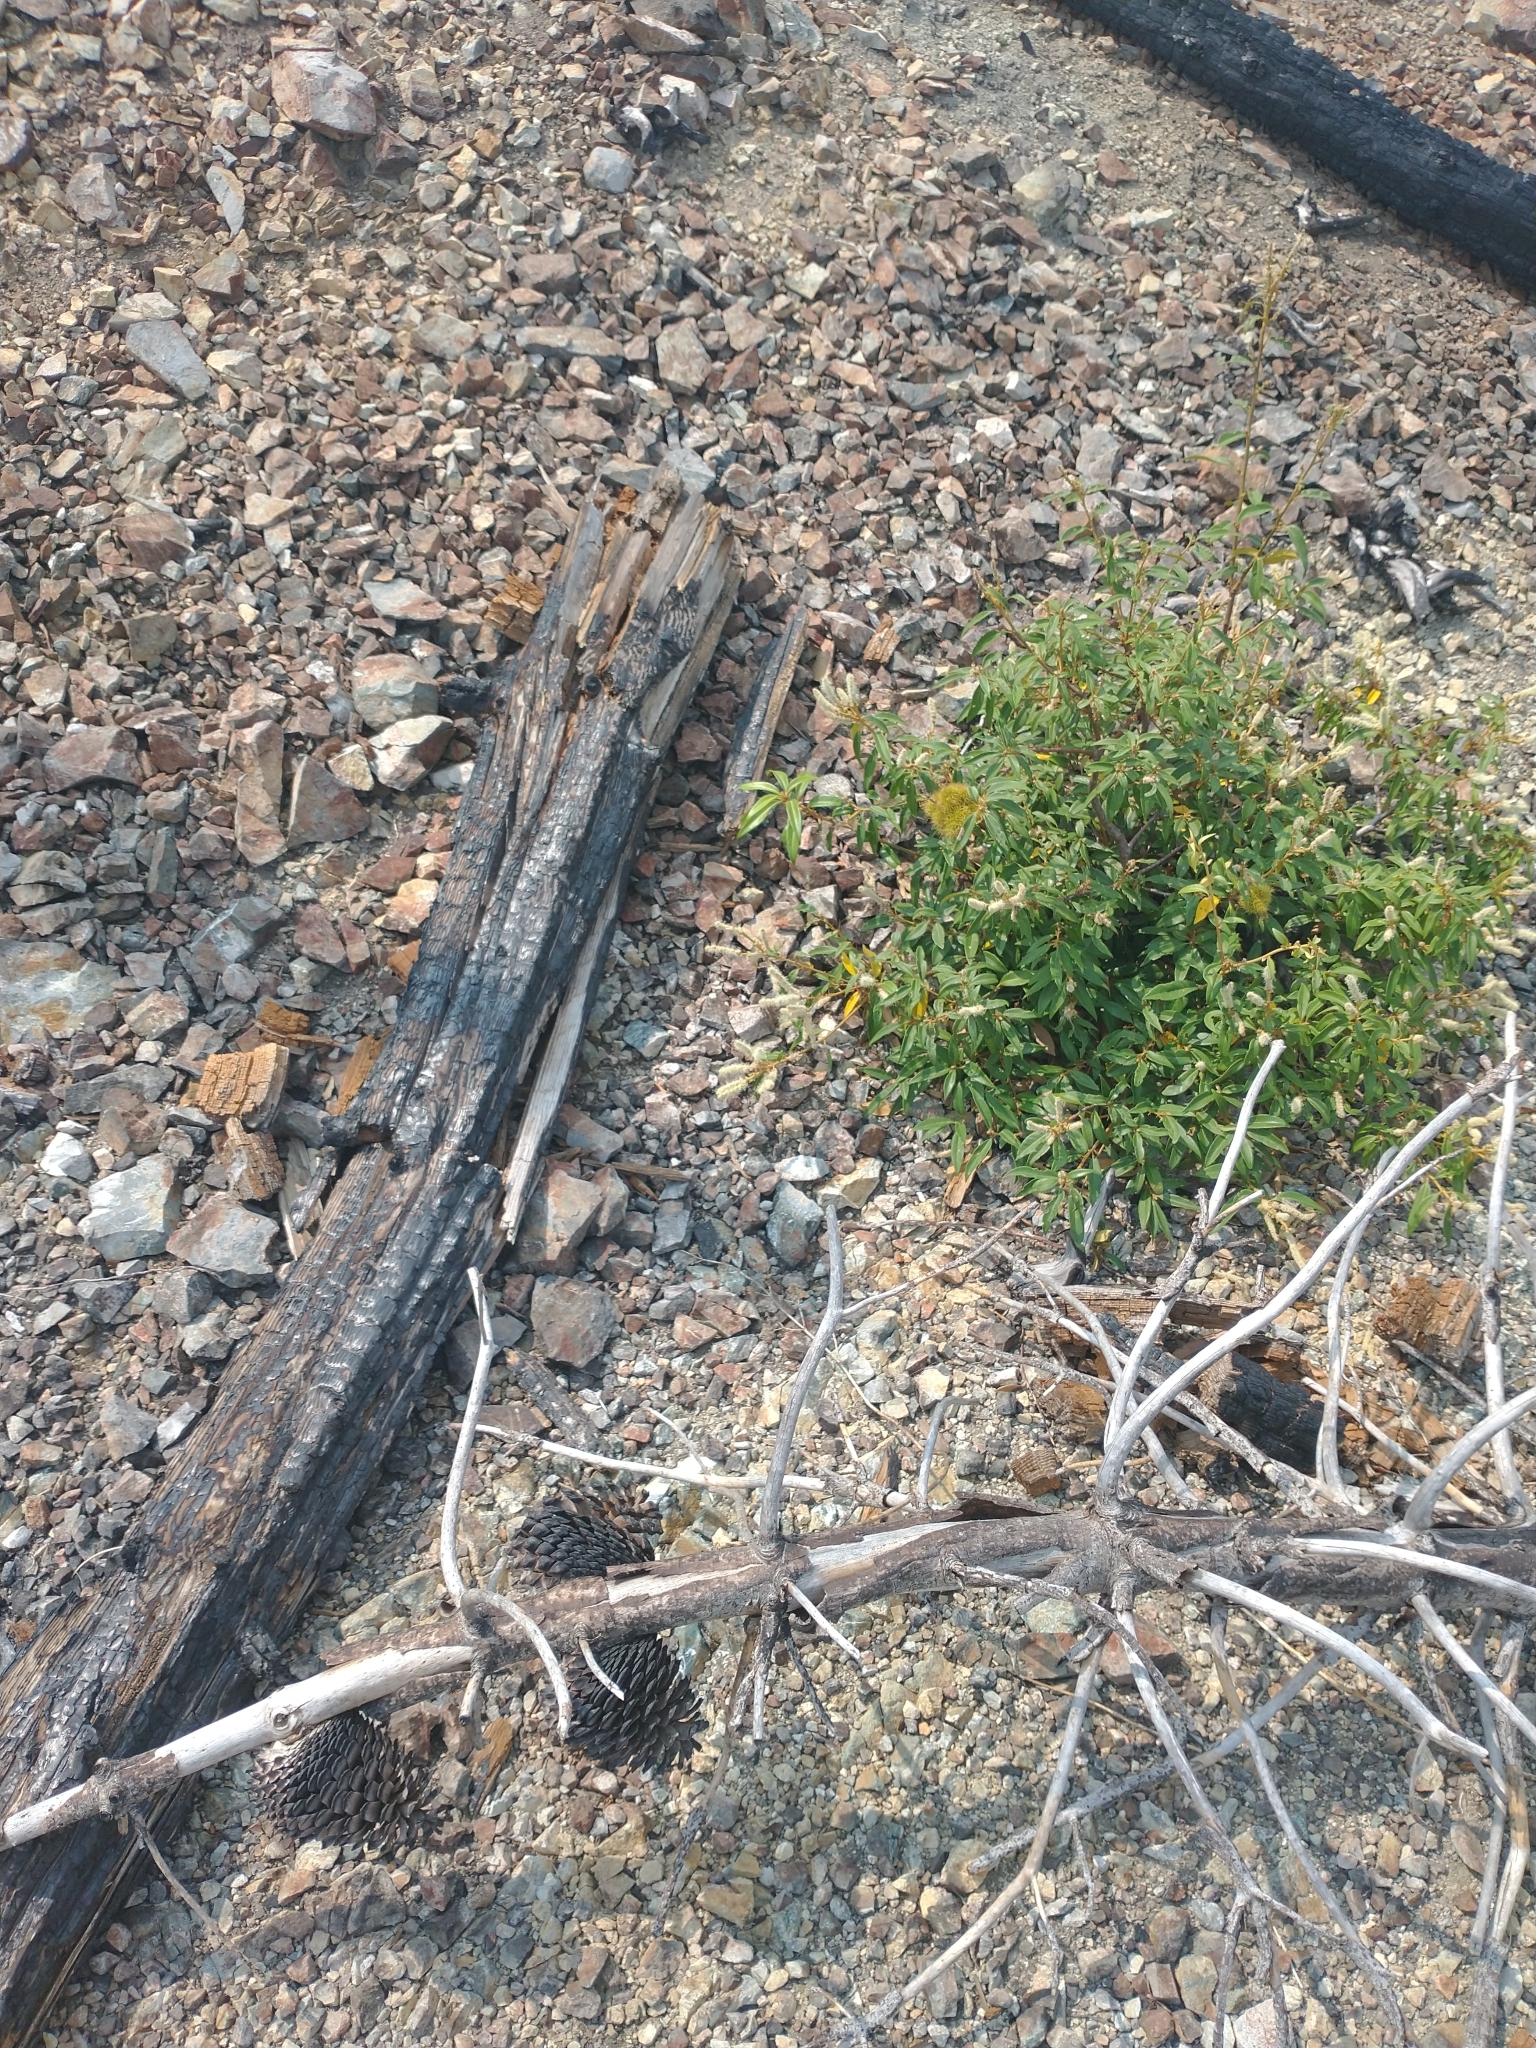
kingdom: Plantae
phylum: Tracheophyta
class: Magnoliopsida
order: Fagales
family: Fagaceae
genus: Chrysolepis
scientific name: Chrysolepis chrysophylla
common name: Giant chinquapin
